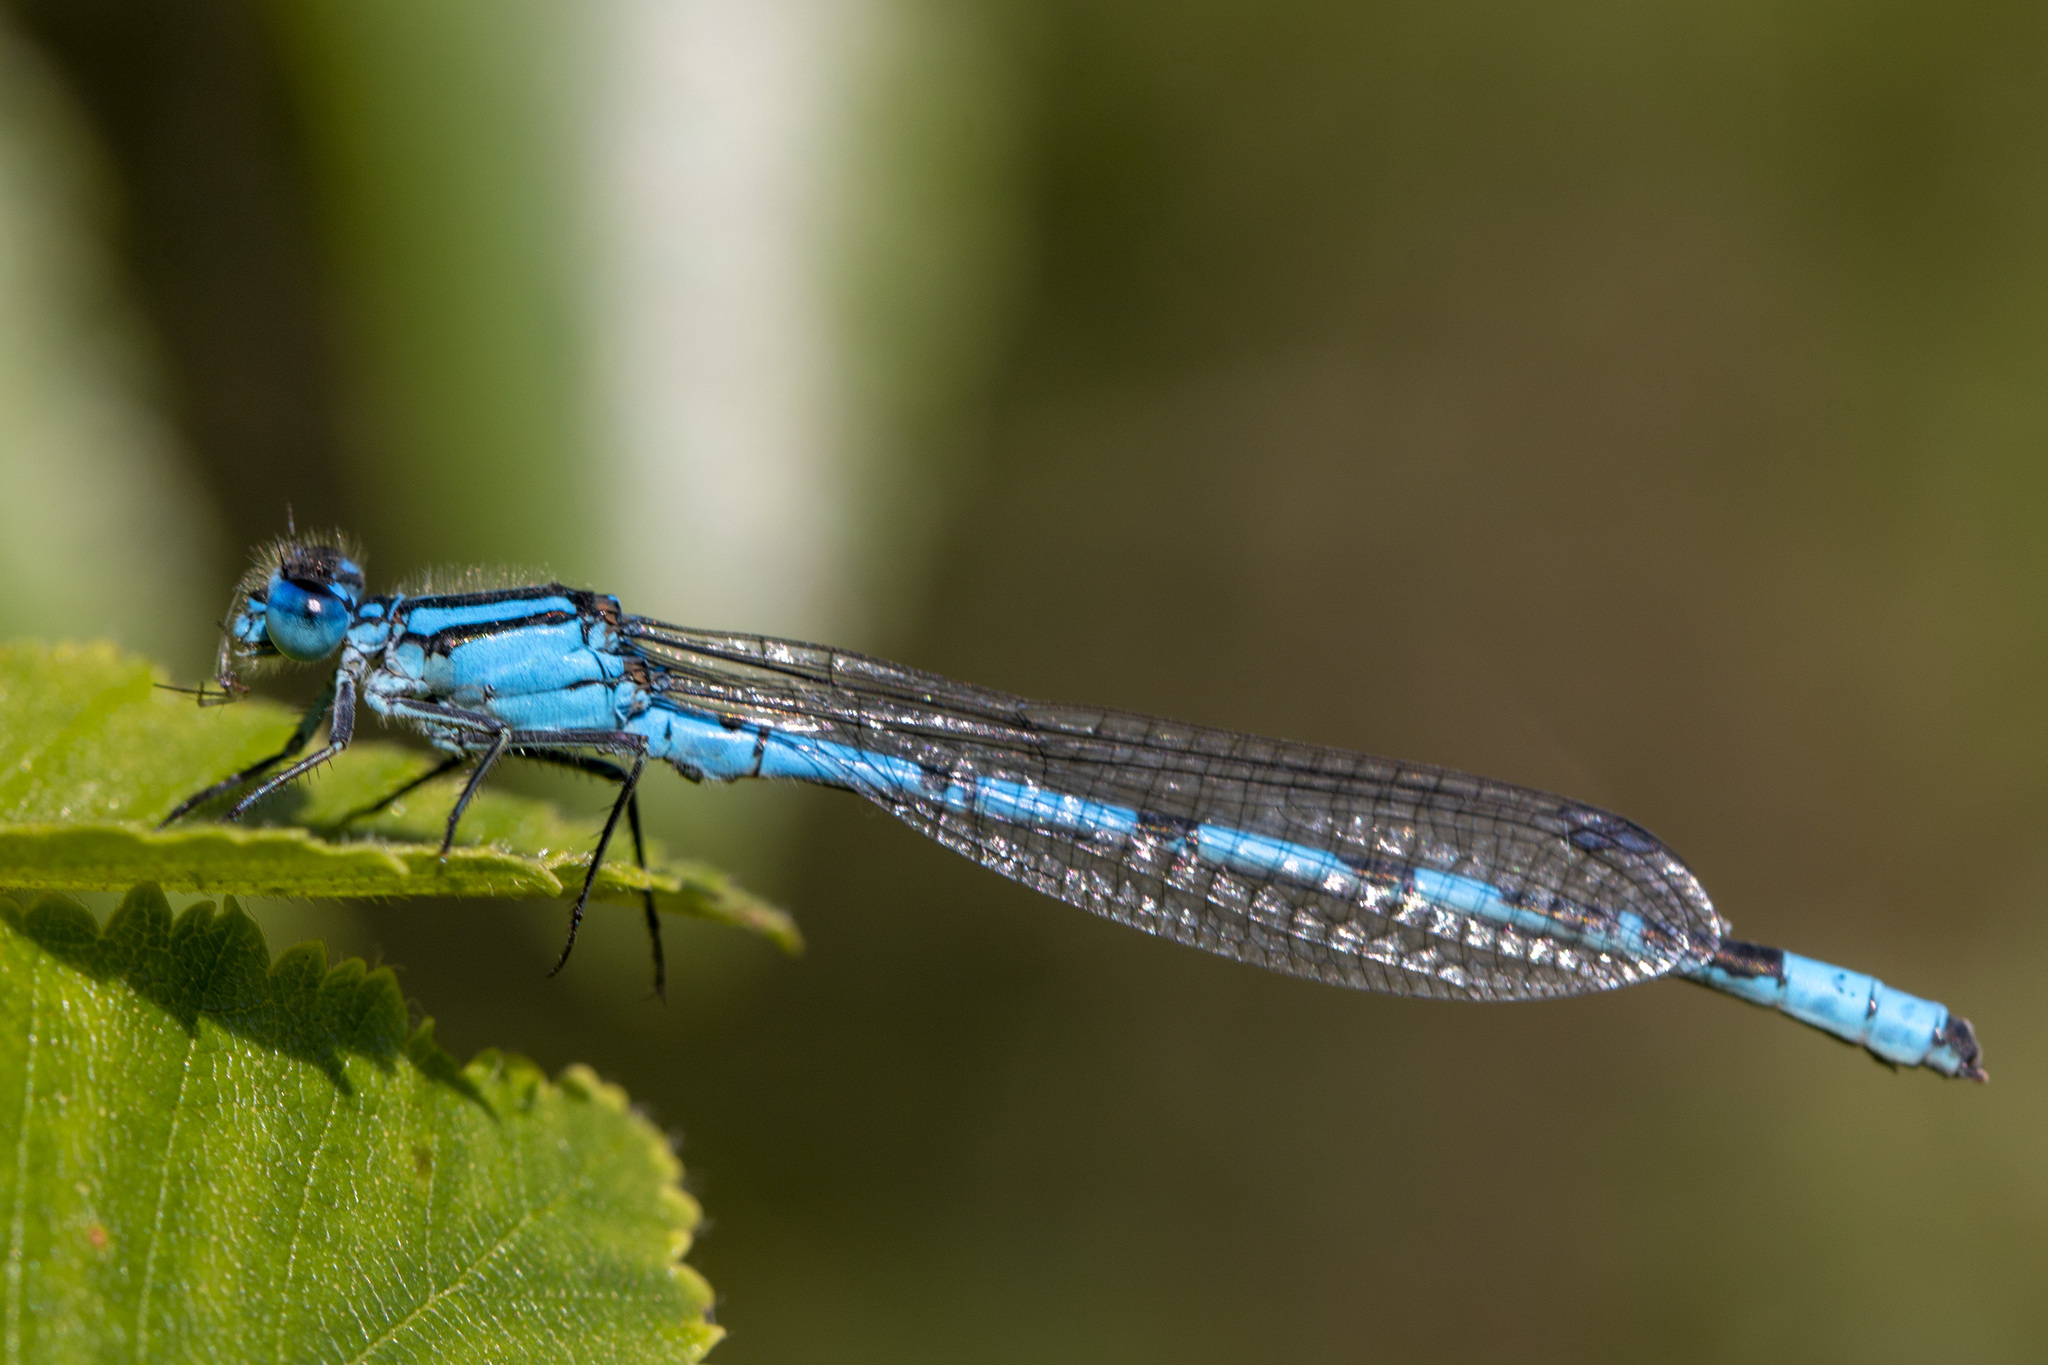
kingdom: Animalia
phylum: Arthropoda
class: Insecta
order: Odonata
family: Coenagrionidae
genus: Enallagma
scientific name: Enallagma cyathigerum
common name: Common blue damselfly
